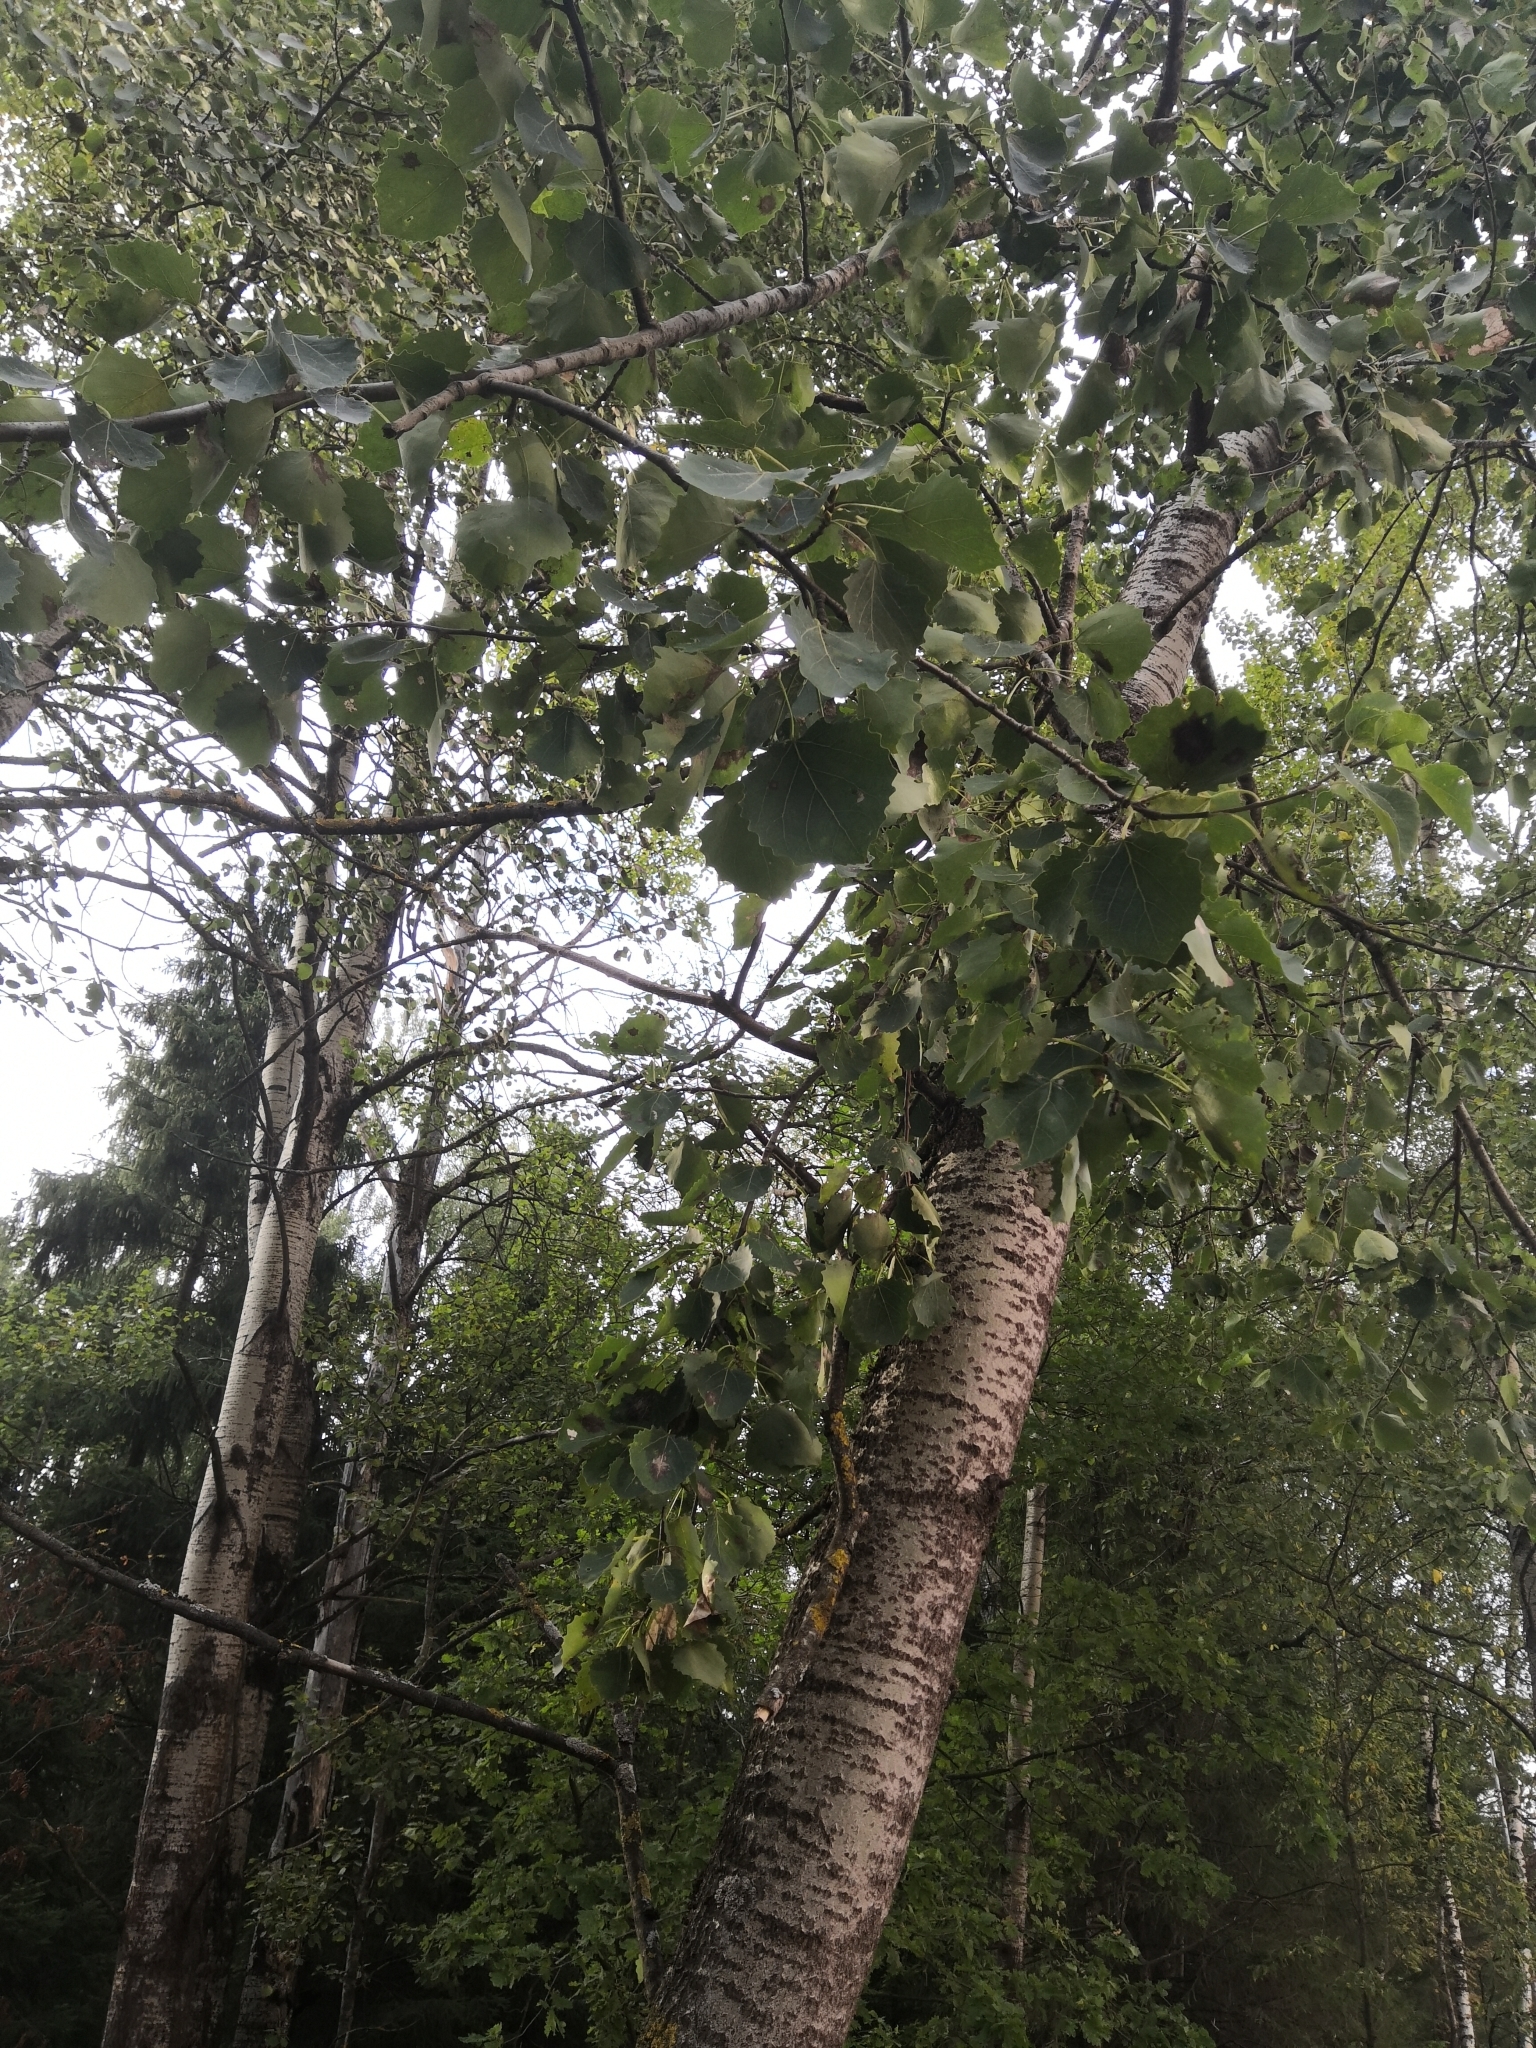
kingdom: Plantae
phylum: Tracheophyta
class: Magnoliopsida
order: Malpighiales
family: Salicaceae
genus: Populus
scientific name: Populus tremula
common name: European aspen
